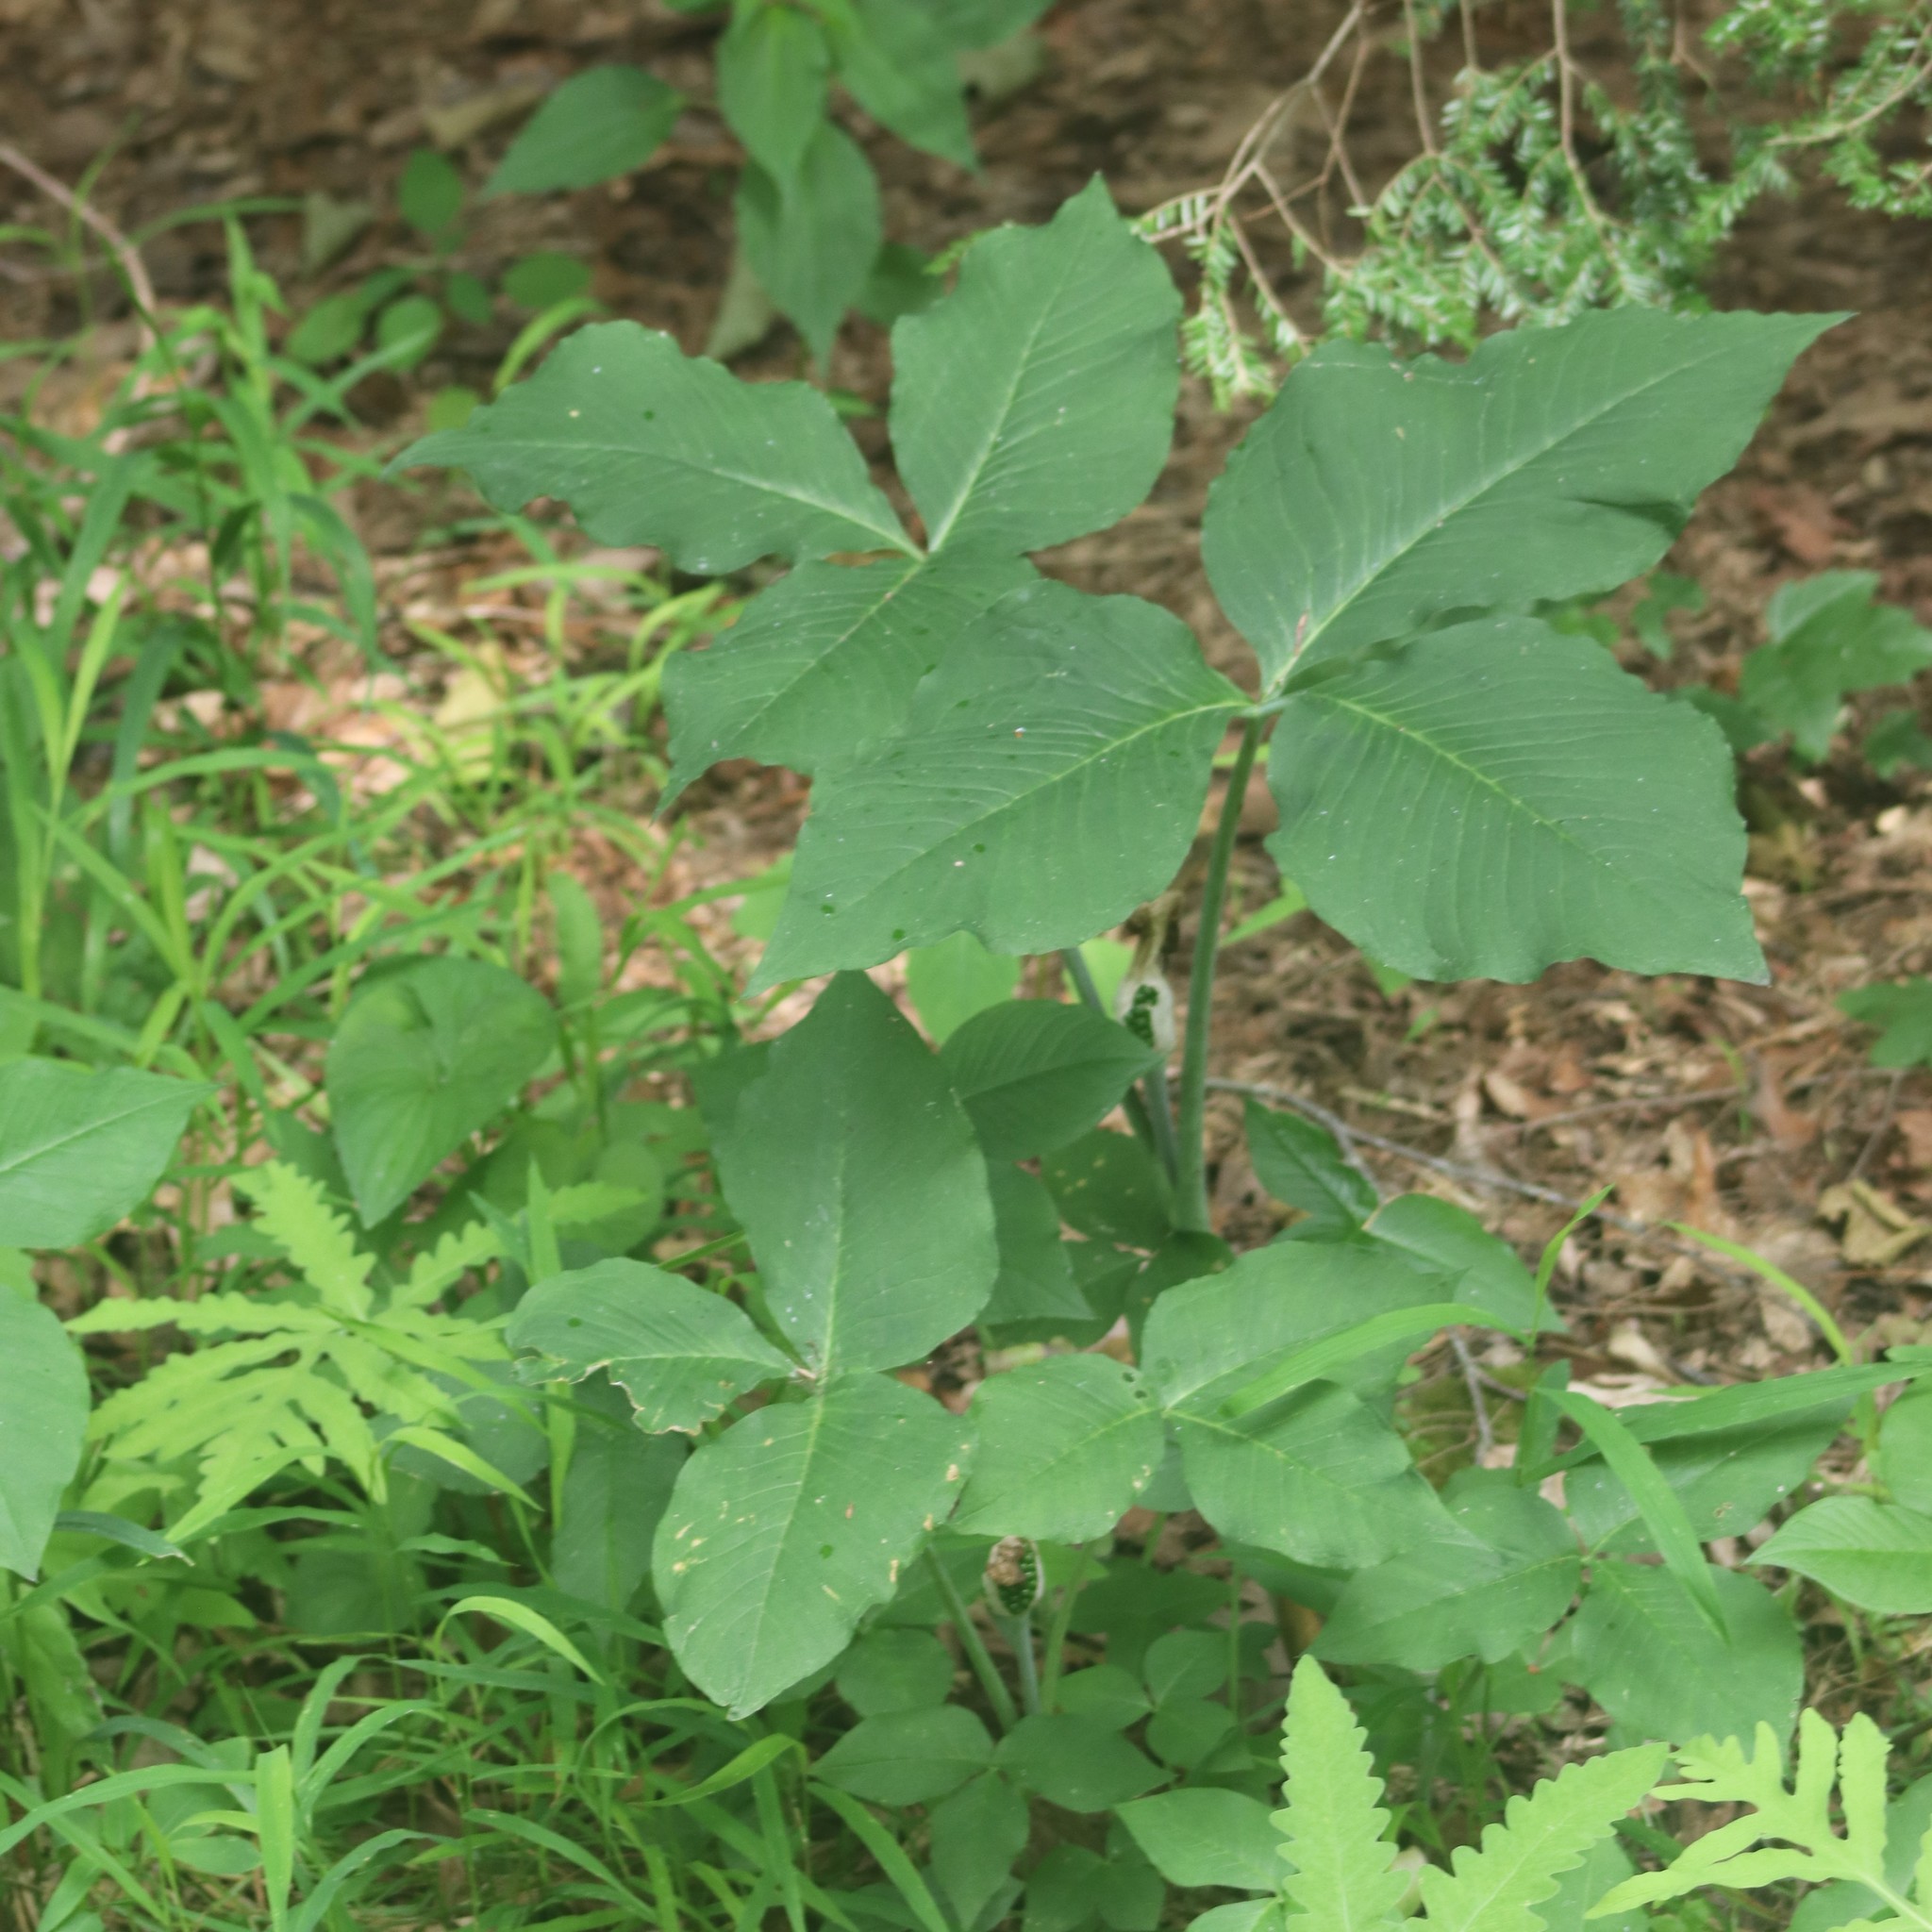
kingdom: Plantae
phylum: Tracheophyta
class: Liliopsida
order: Alismatales
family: Araceae
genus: Arisaema
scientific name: Arisaema triphyllum
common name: Jack-in-the-pulpit
